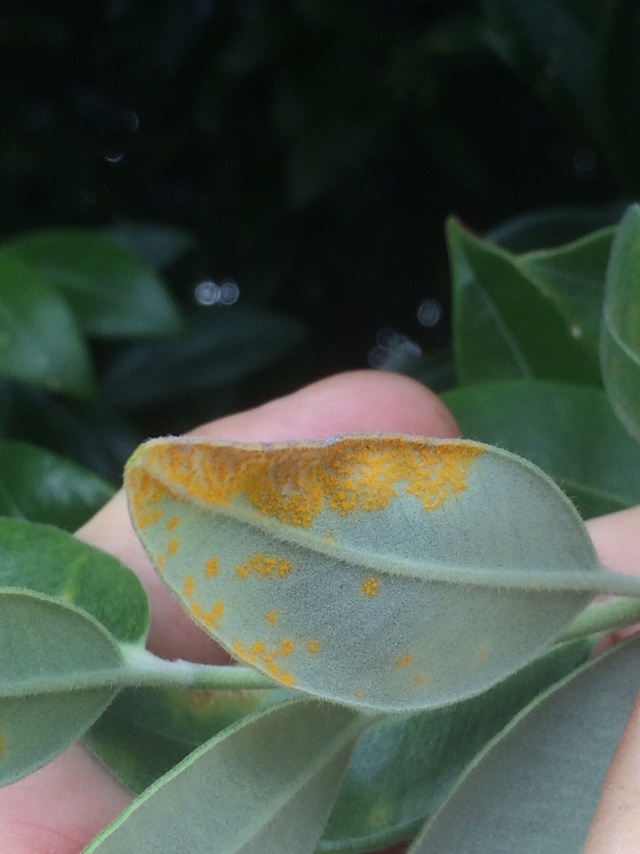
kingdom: Fungi
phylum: Basidiomycota
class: Pucciniomycetes
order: Pucciniales
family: Sphaerophragmiaceae
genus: Austropuccinia
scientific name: Austropuccinia psidii
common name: Myrtle rust
